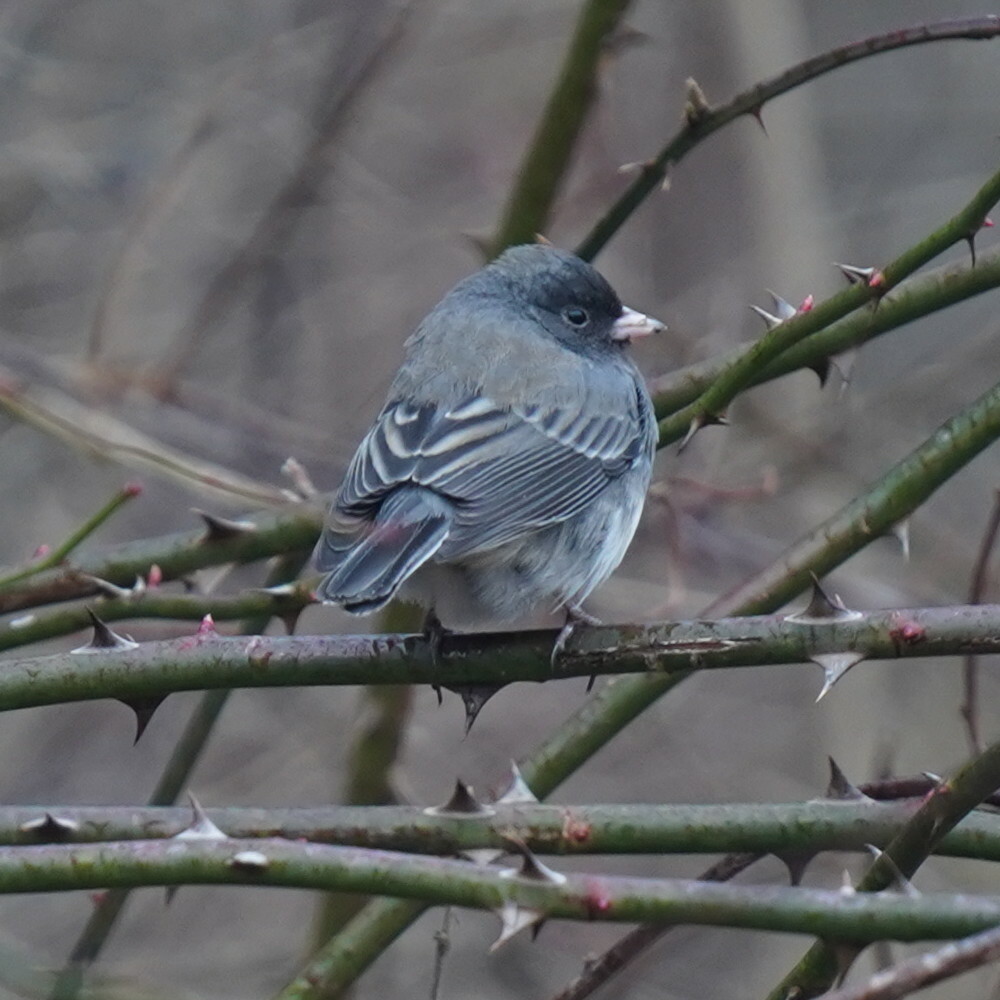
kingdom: Animalia
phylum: Chordata
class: Aves
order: Passeriformes
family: Passerellidae
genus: Junco
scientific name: Junco hyemalis
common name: Dark-eyed junco
